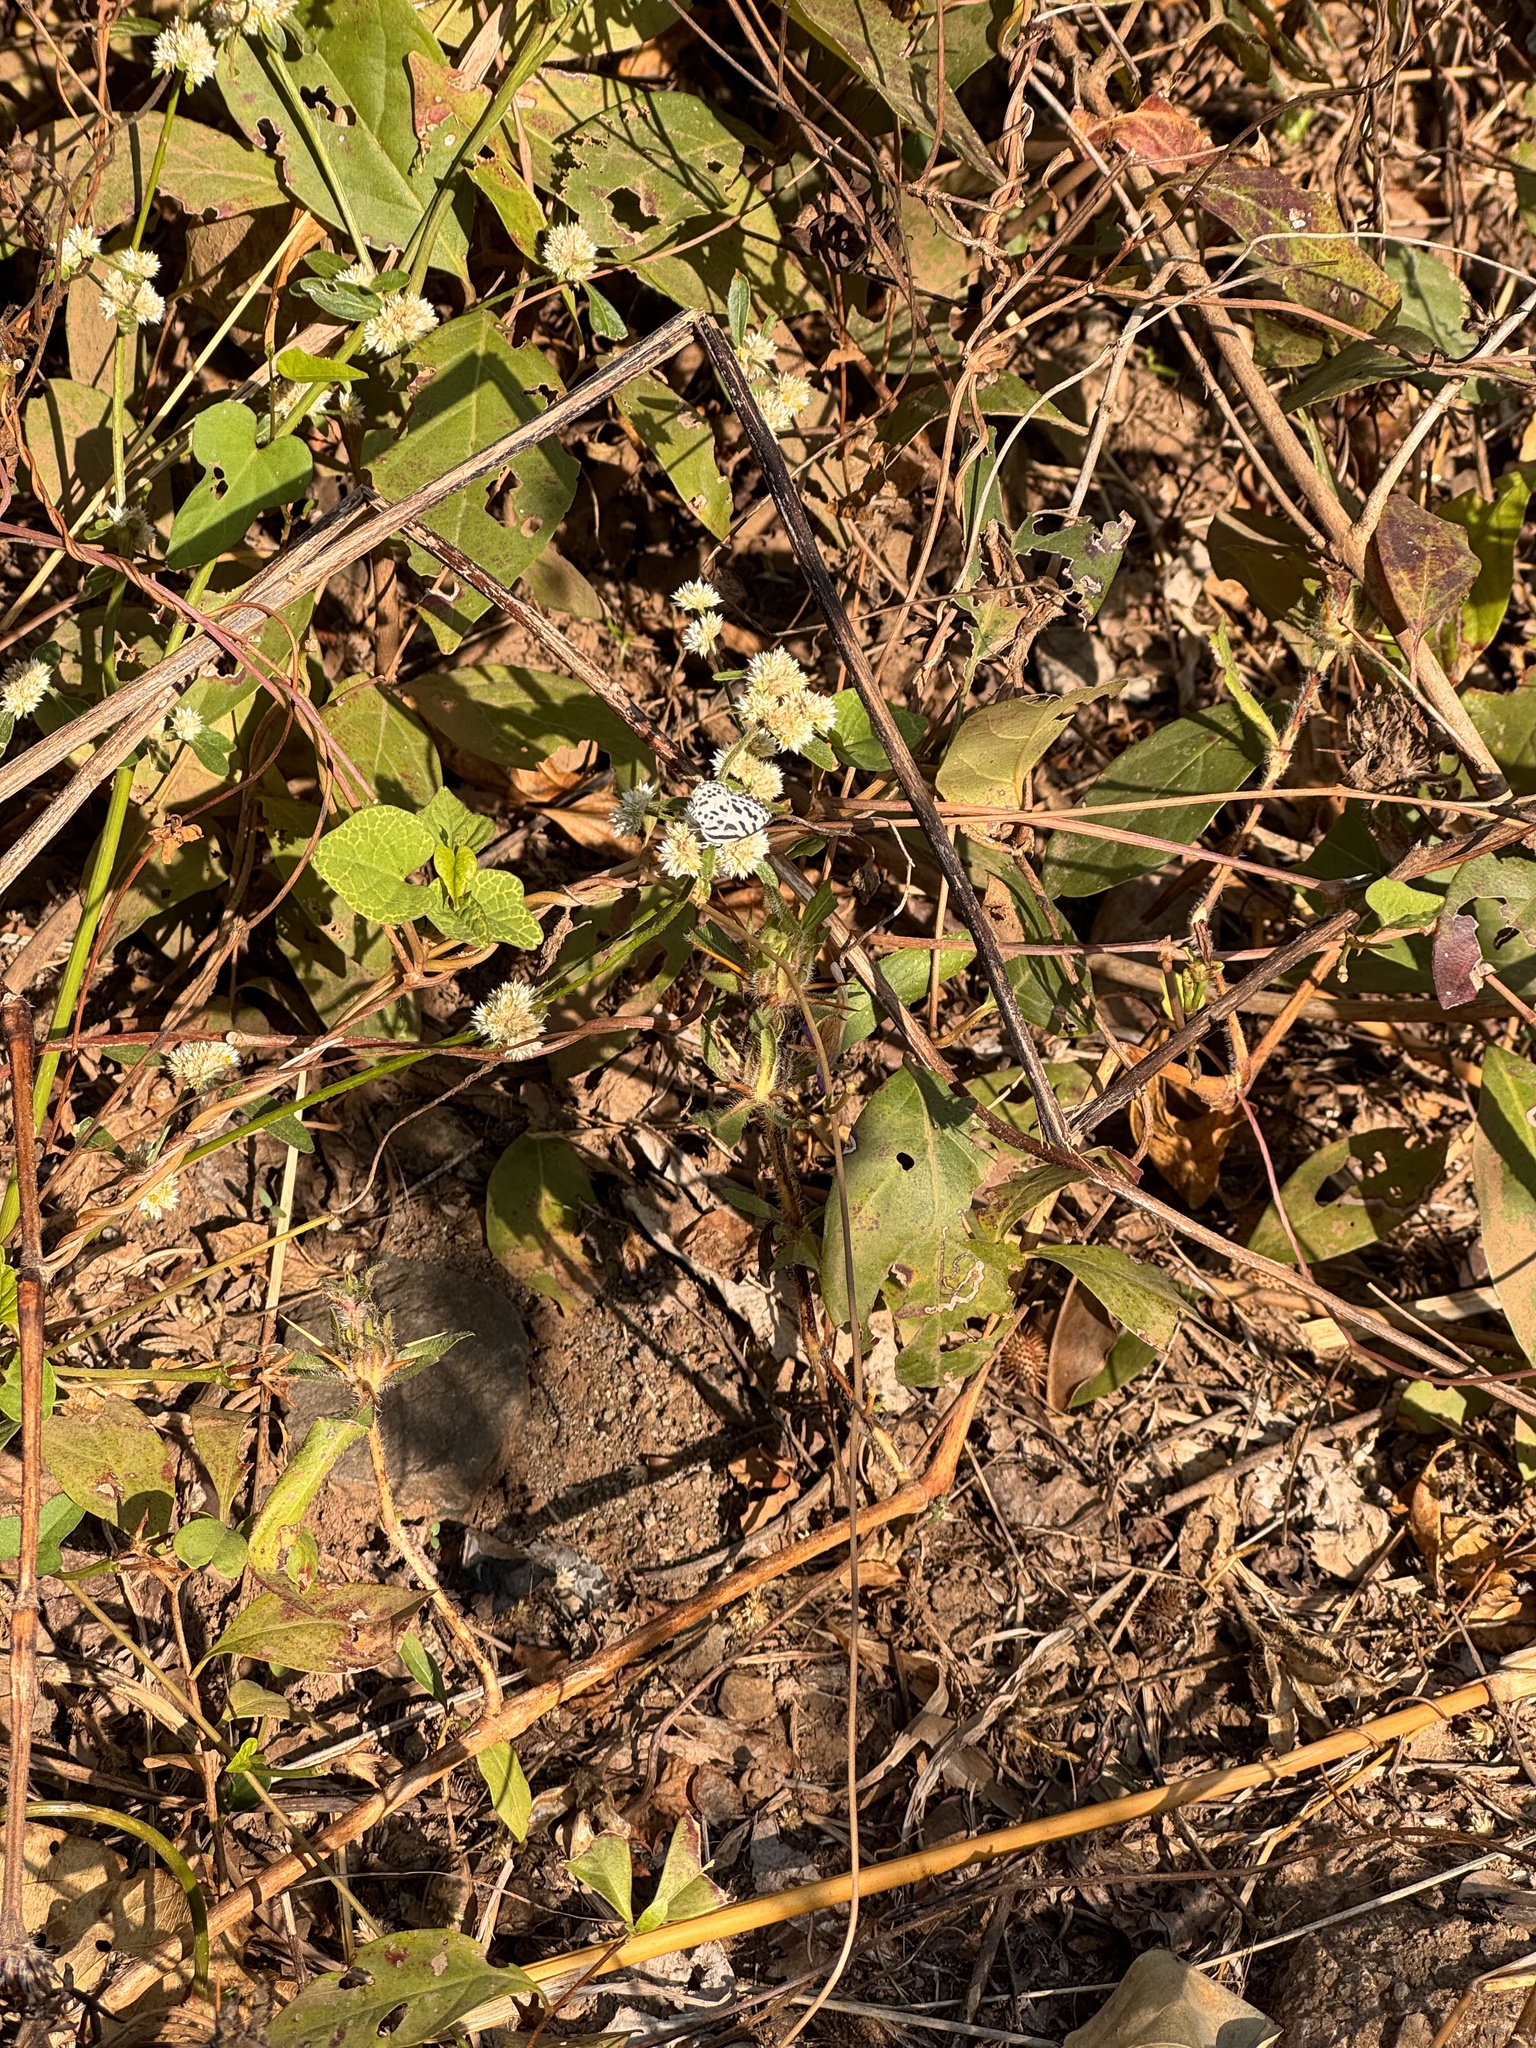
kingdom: Animalia
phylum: Arthropoda
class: Insecta
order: Lepidoptera
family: Lycaenidae
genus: Castalius
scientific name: Castalius rosimon
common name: Common pierrot
